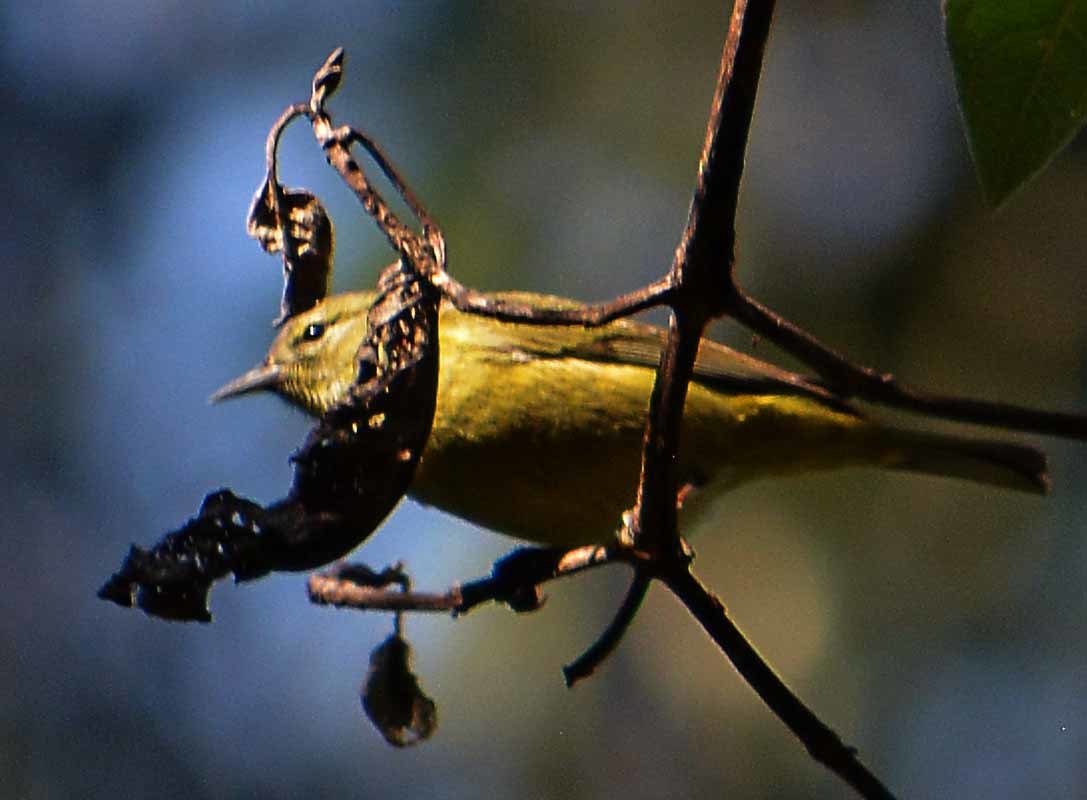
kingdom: Animalia
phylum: Chordata
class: Aves
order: Passeriformes
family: Parulidae
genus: Leiothlypis
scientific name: Leiothlypis celata
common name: Orange-crowned warbler
